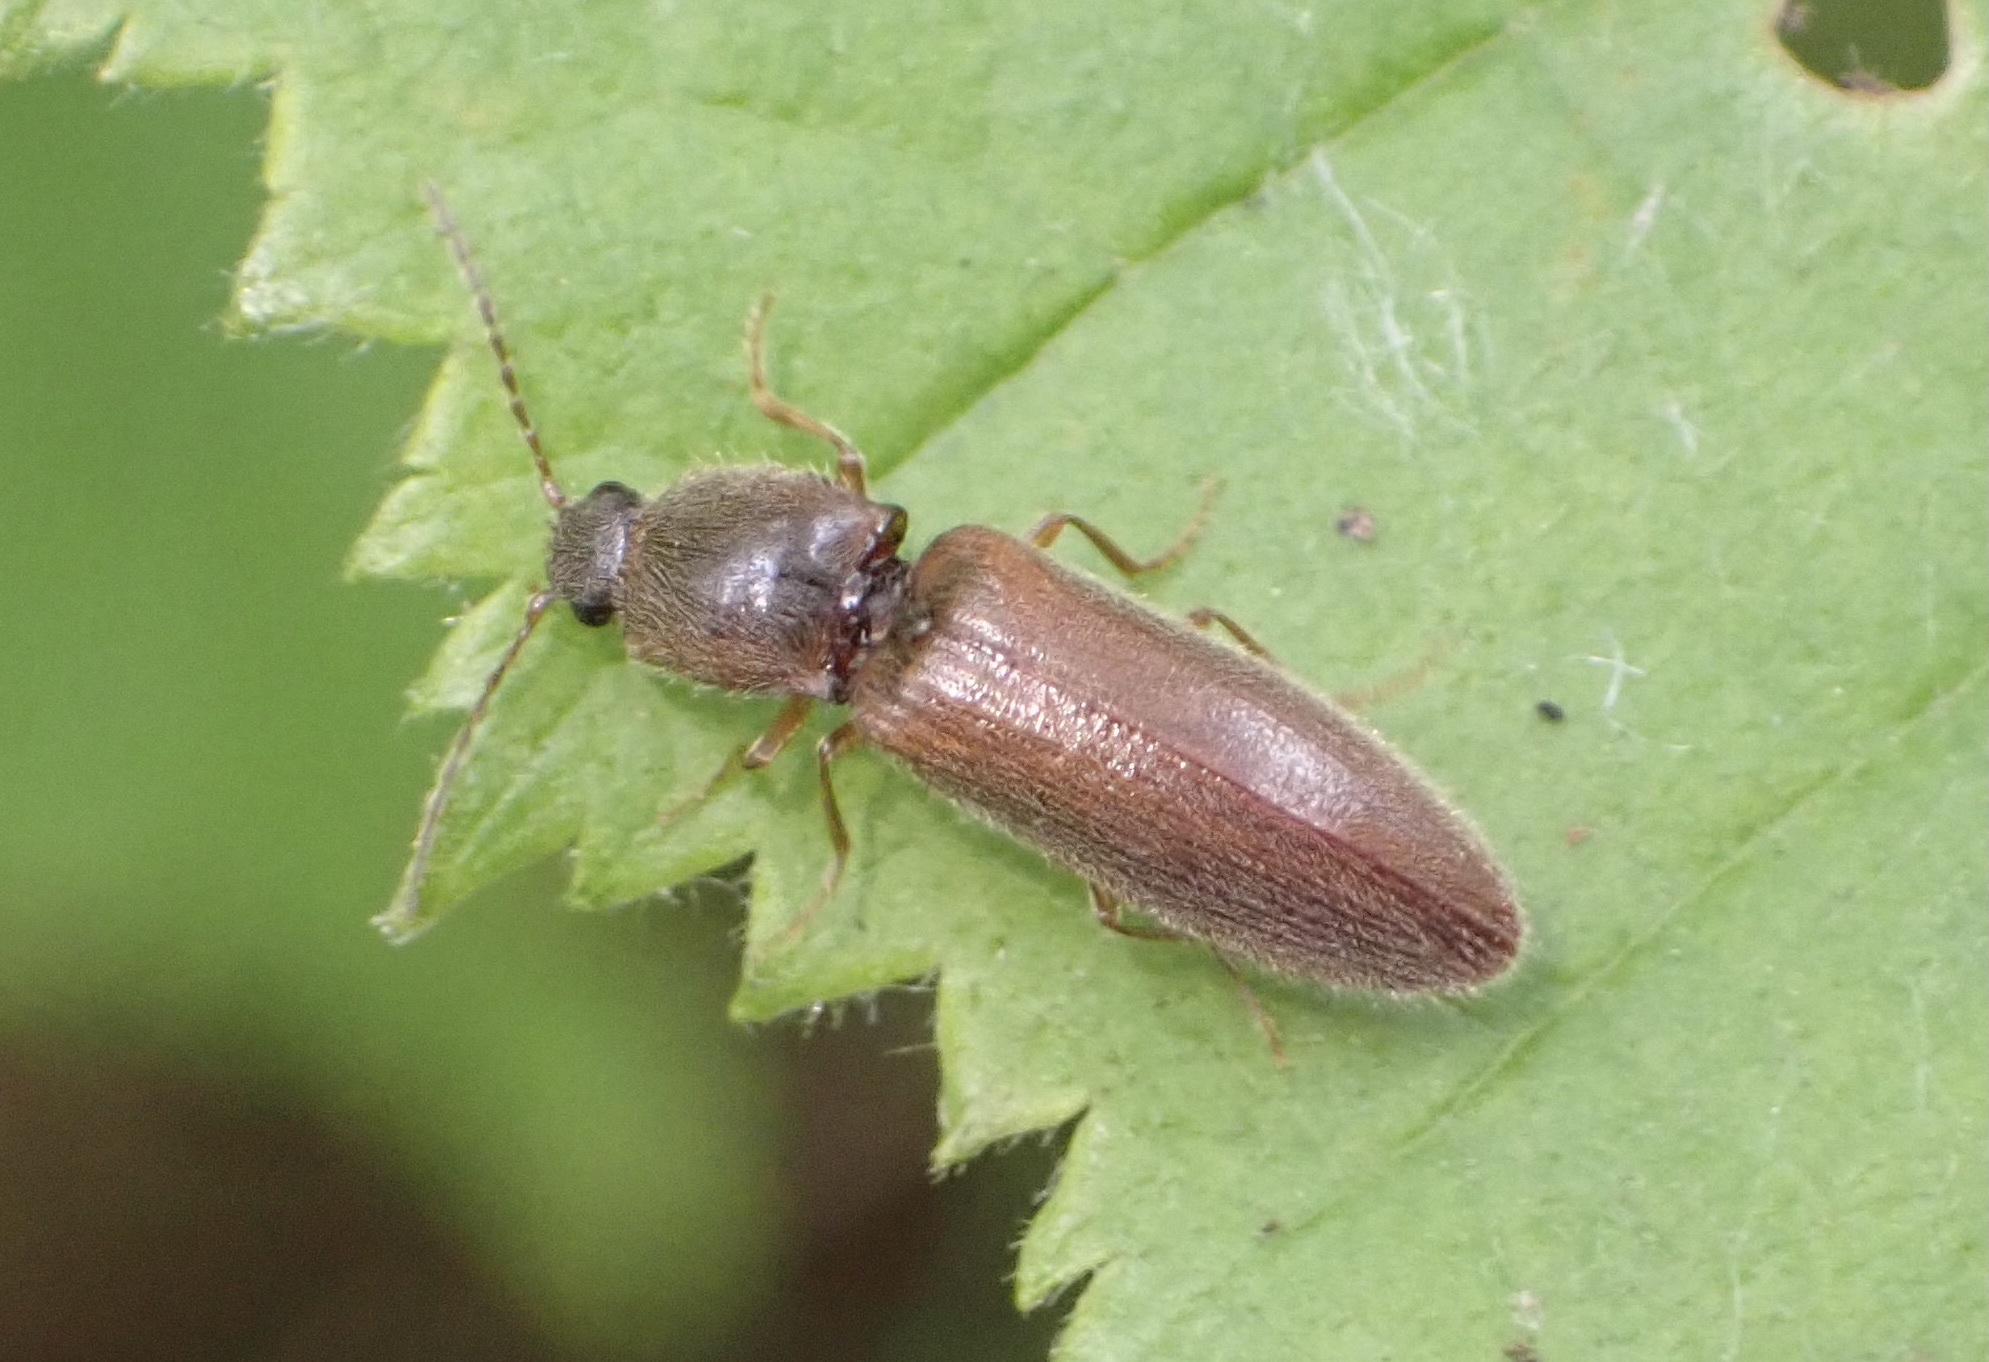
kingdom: Animalia
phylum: Arthropoda
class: Insecta
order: Coleoptera
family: Elateridae
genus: Athous
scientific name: Athous subfuscus
